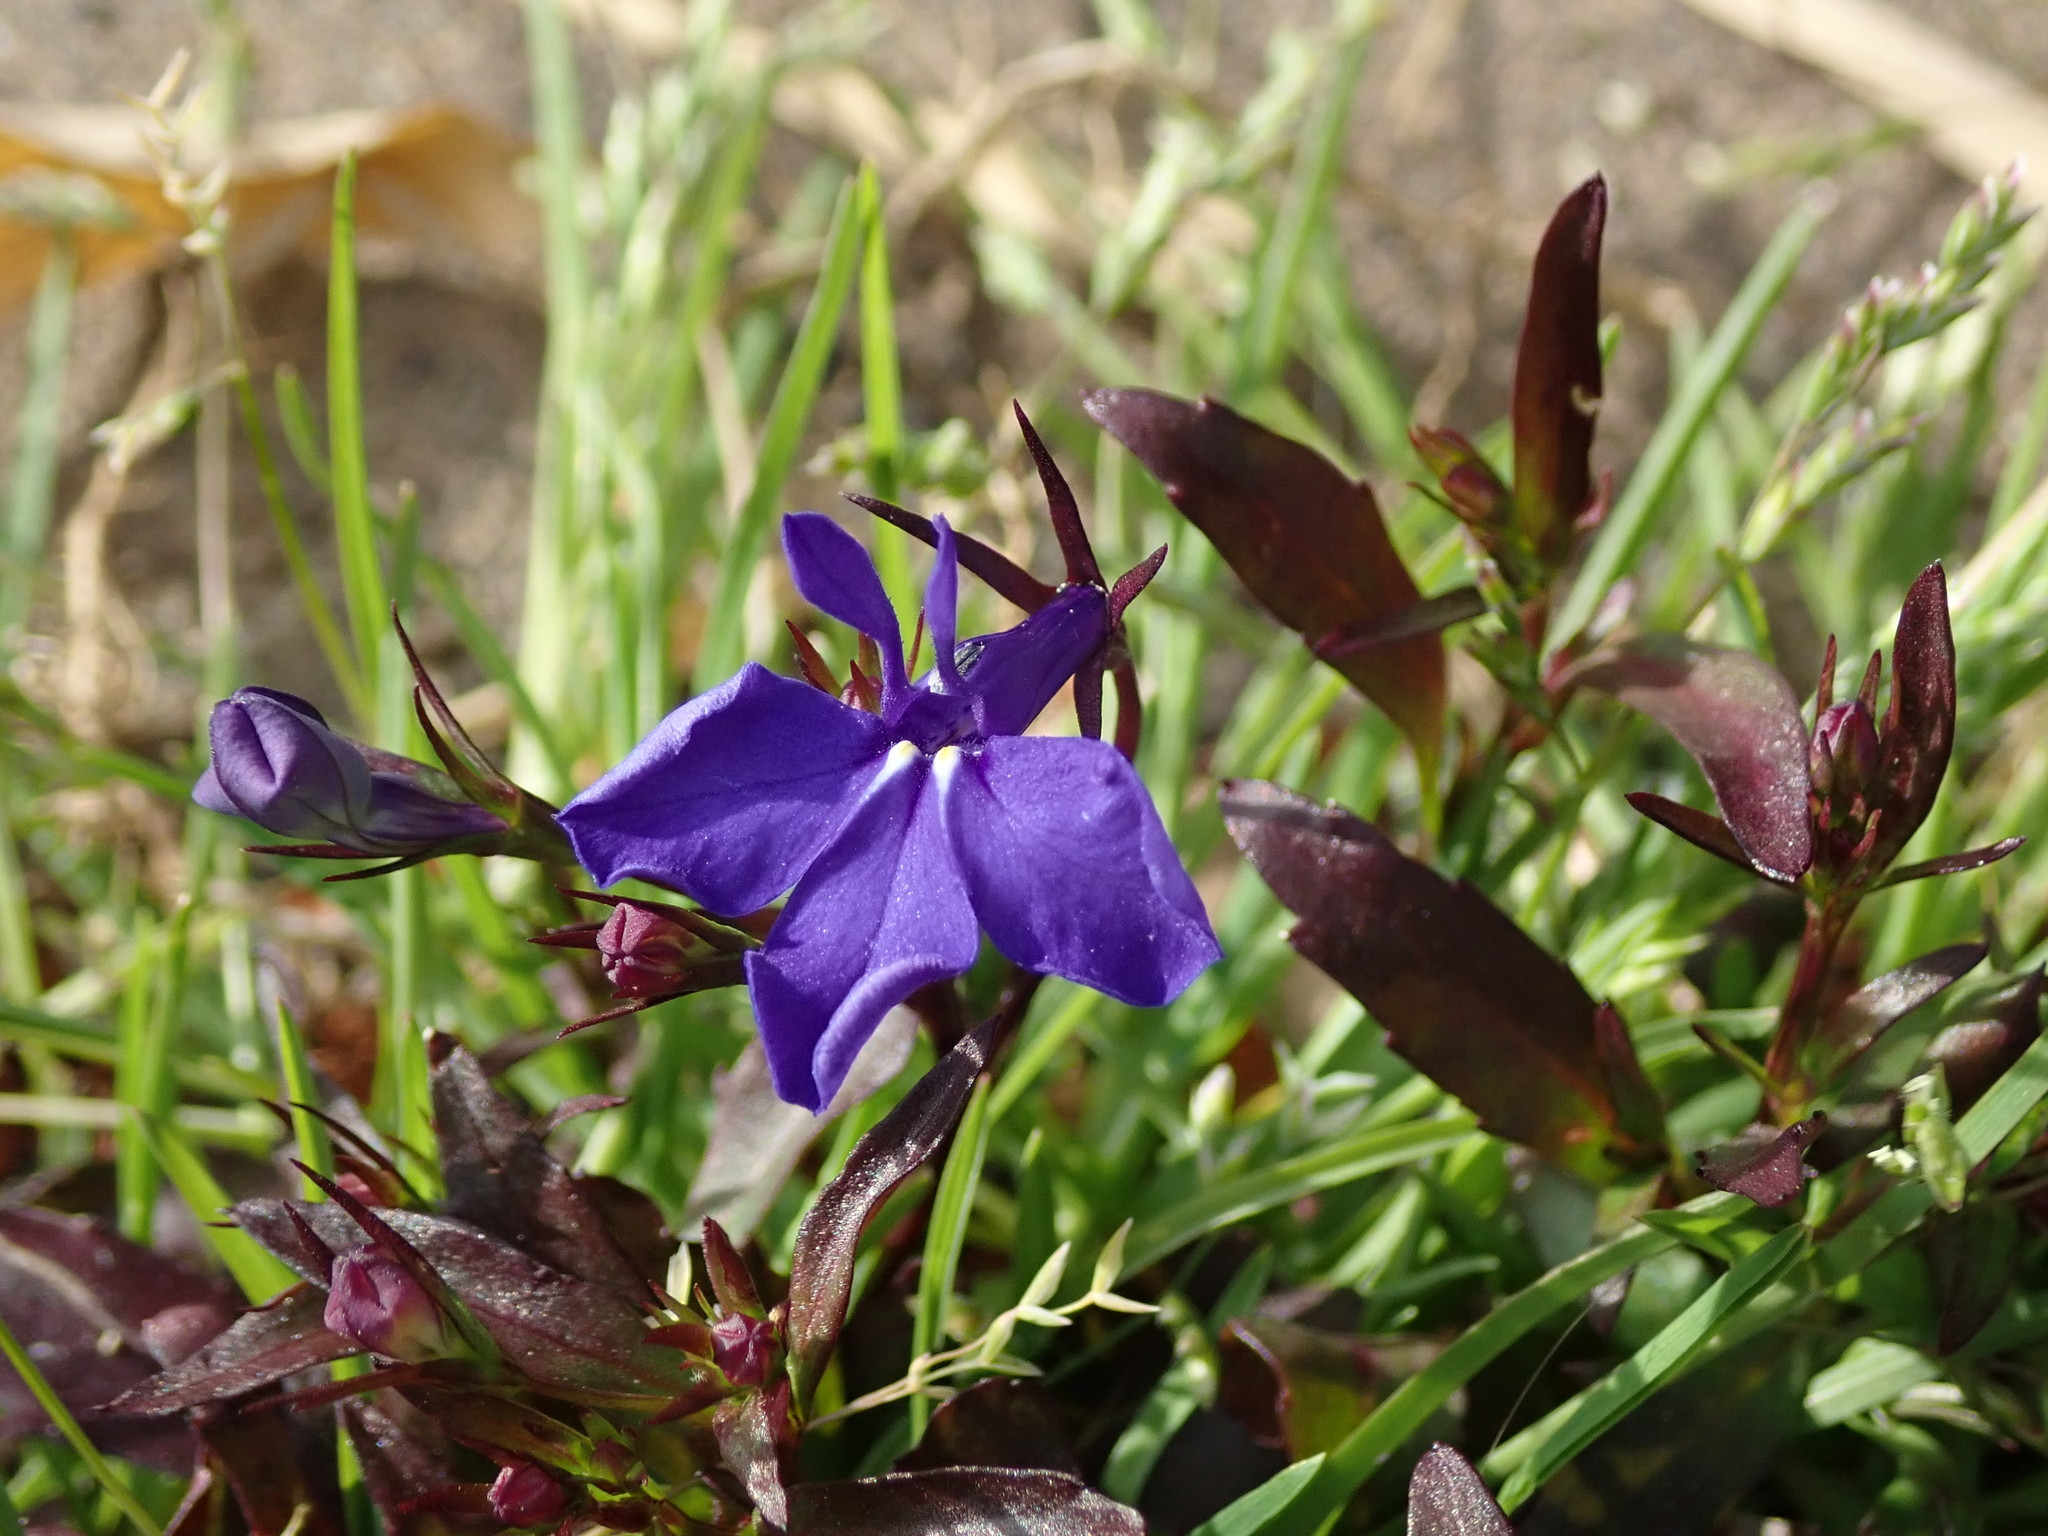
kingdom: Plantae
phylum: Tracheophyta
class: Magnoliopsida
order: Asterales
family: Campanulaceae
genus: Lobelia
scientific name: Lobelia erinus
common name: Edging lobelia
